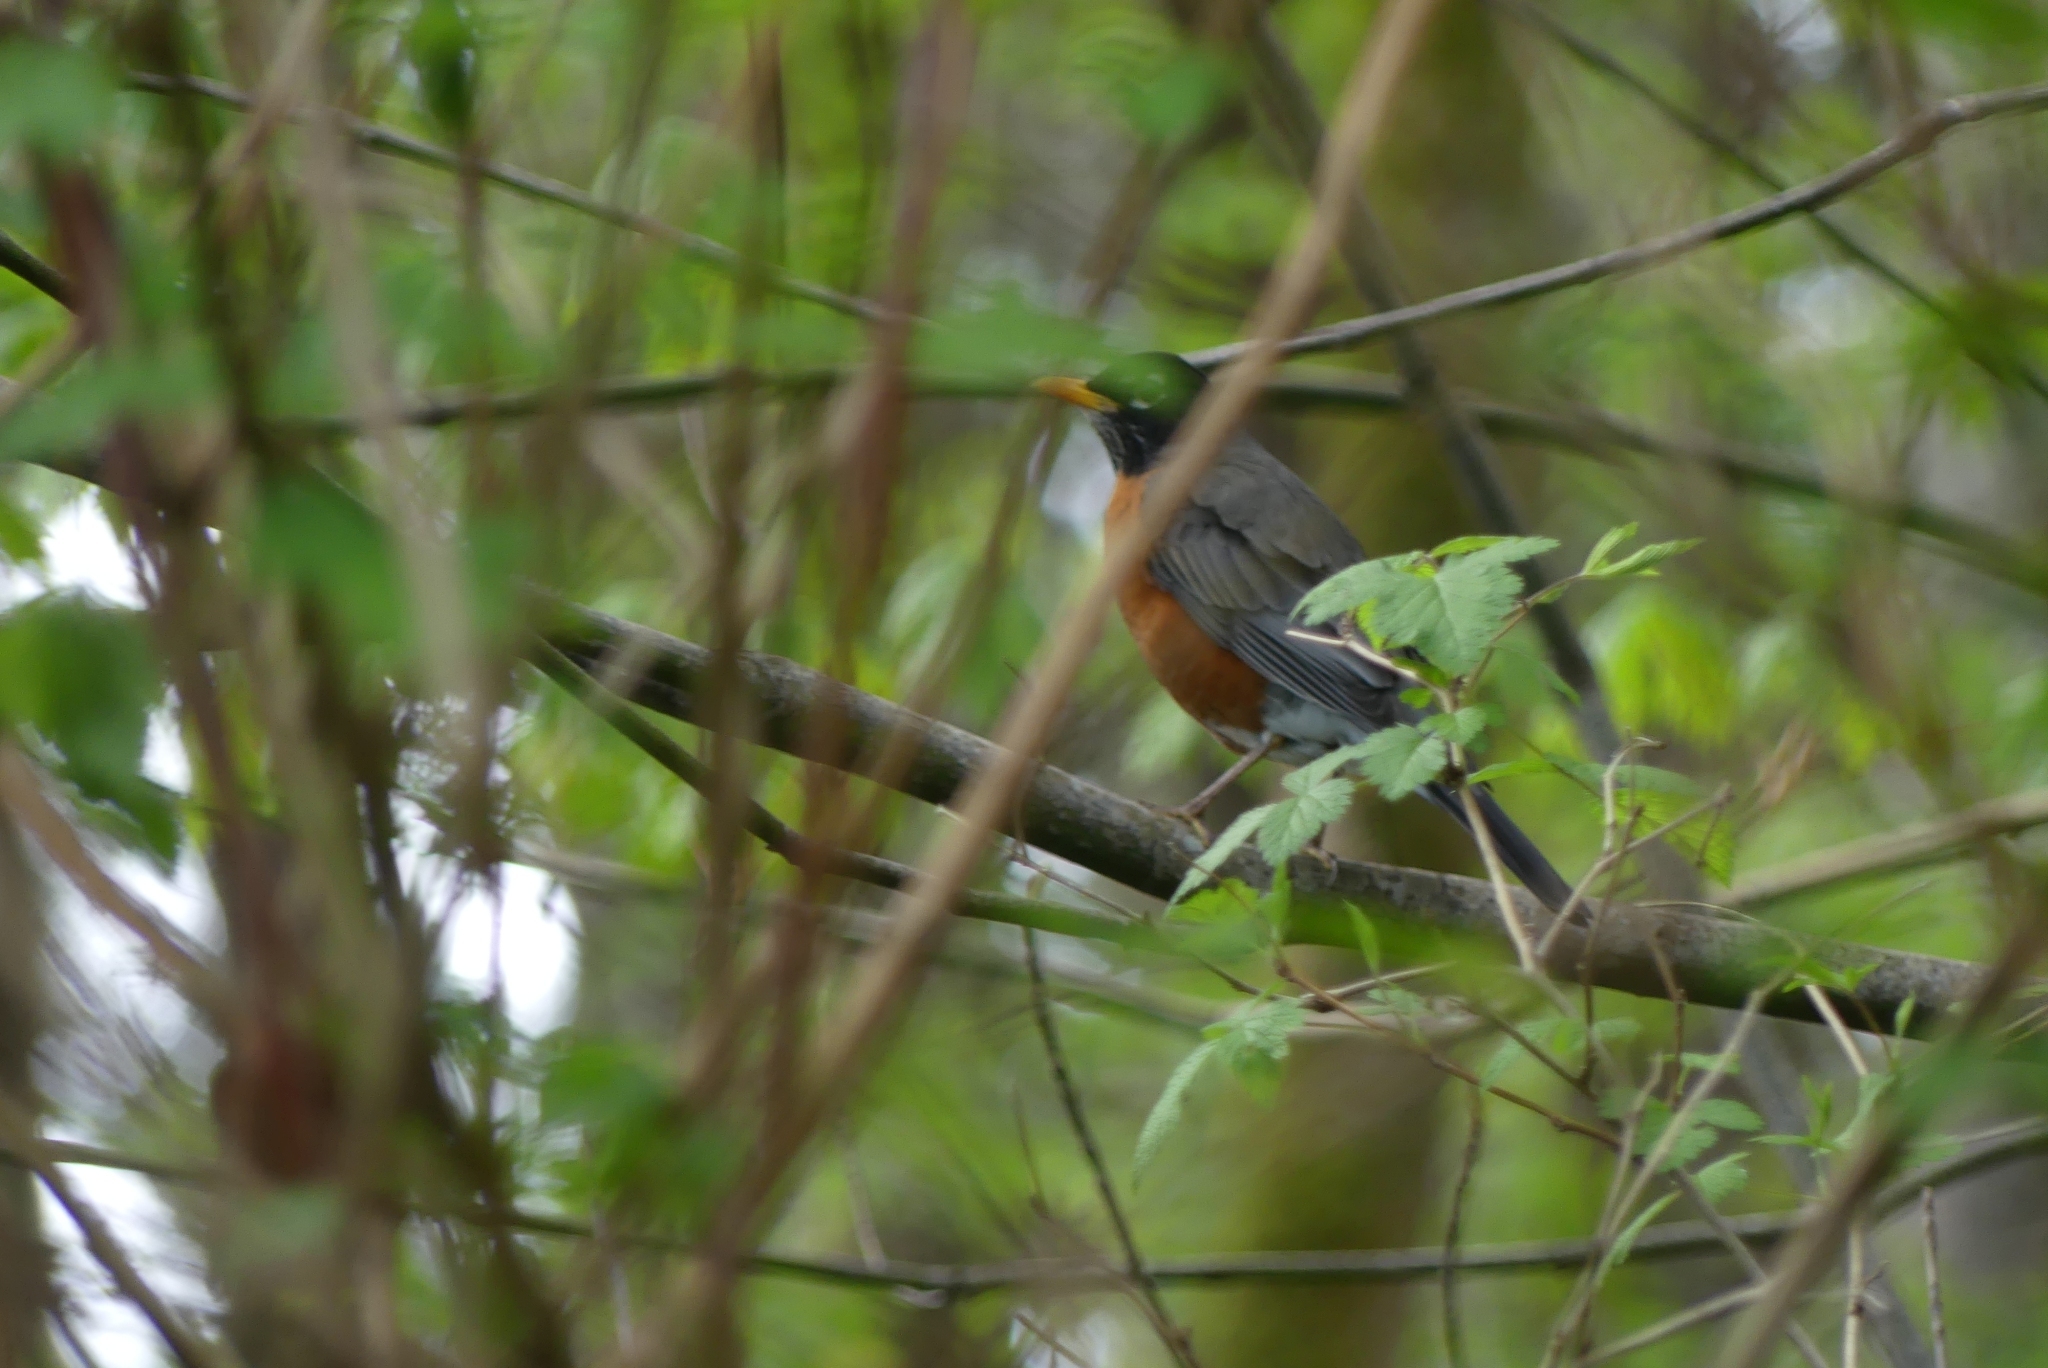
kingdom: Animalia
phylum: Chordata
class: Aves
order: Passeriformes
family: Turdidae
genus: Turdus
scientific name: Turdus migratorius
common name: American robin
